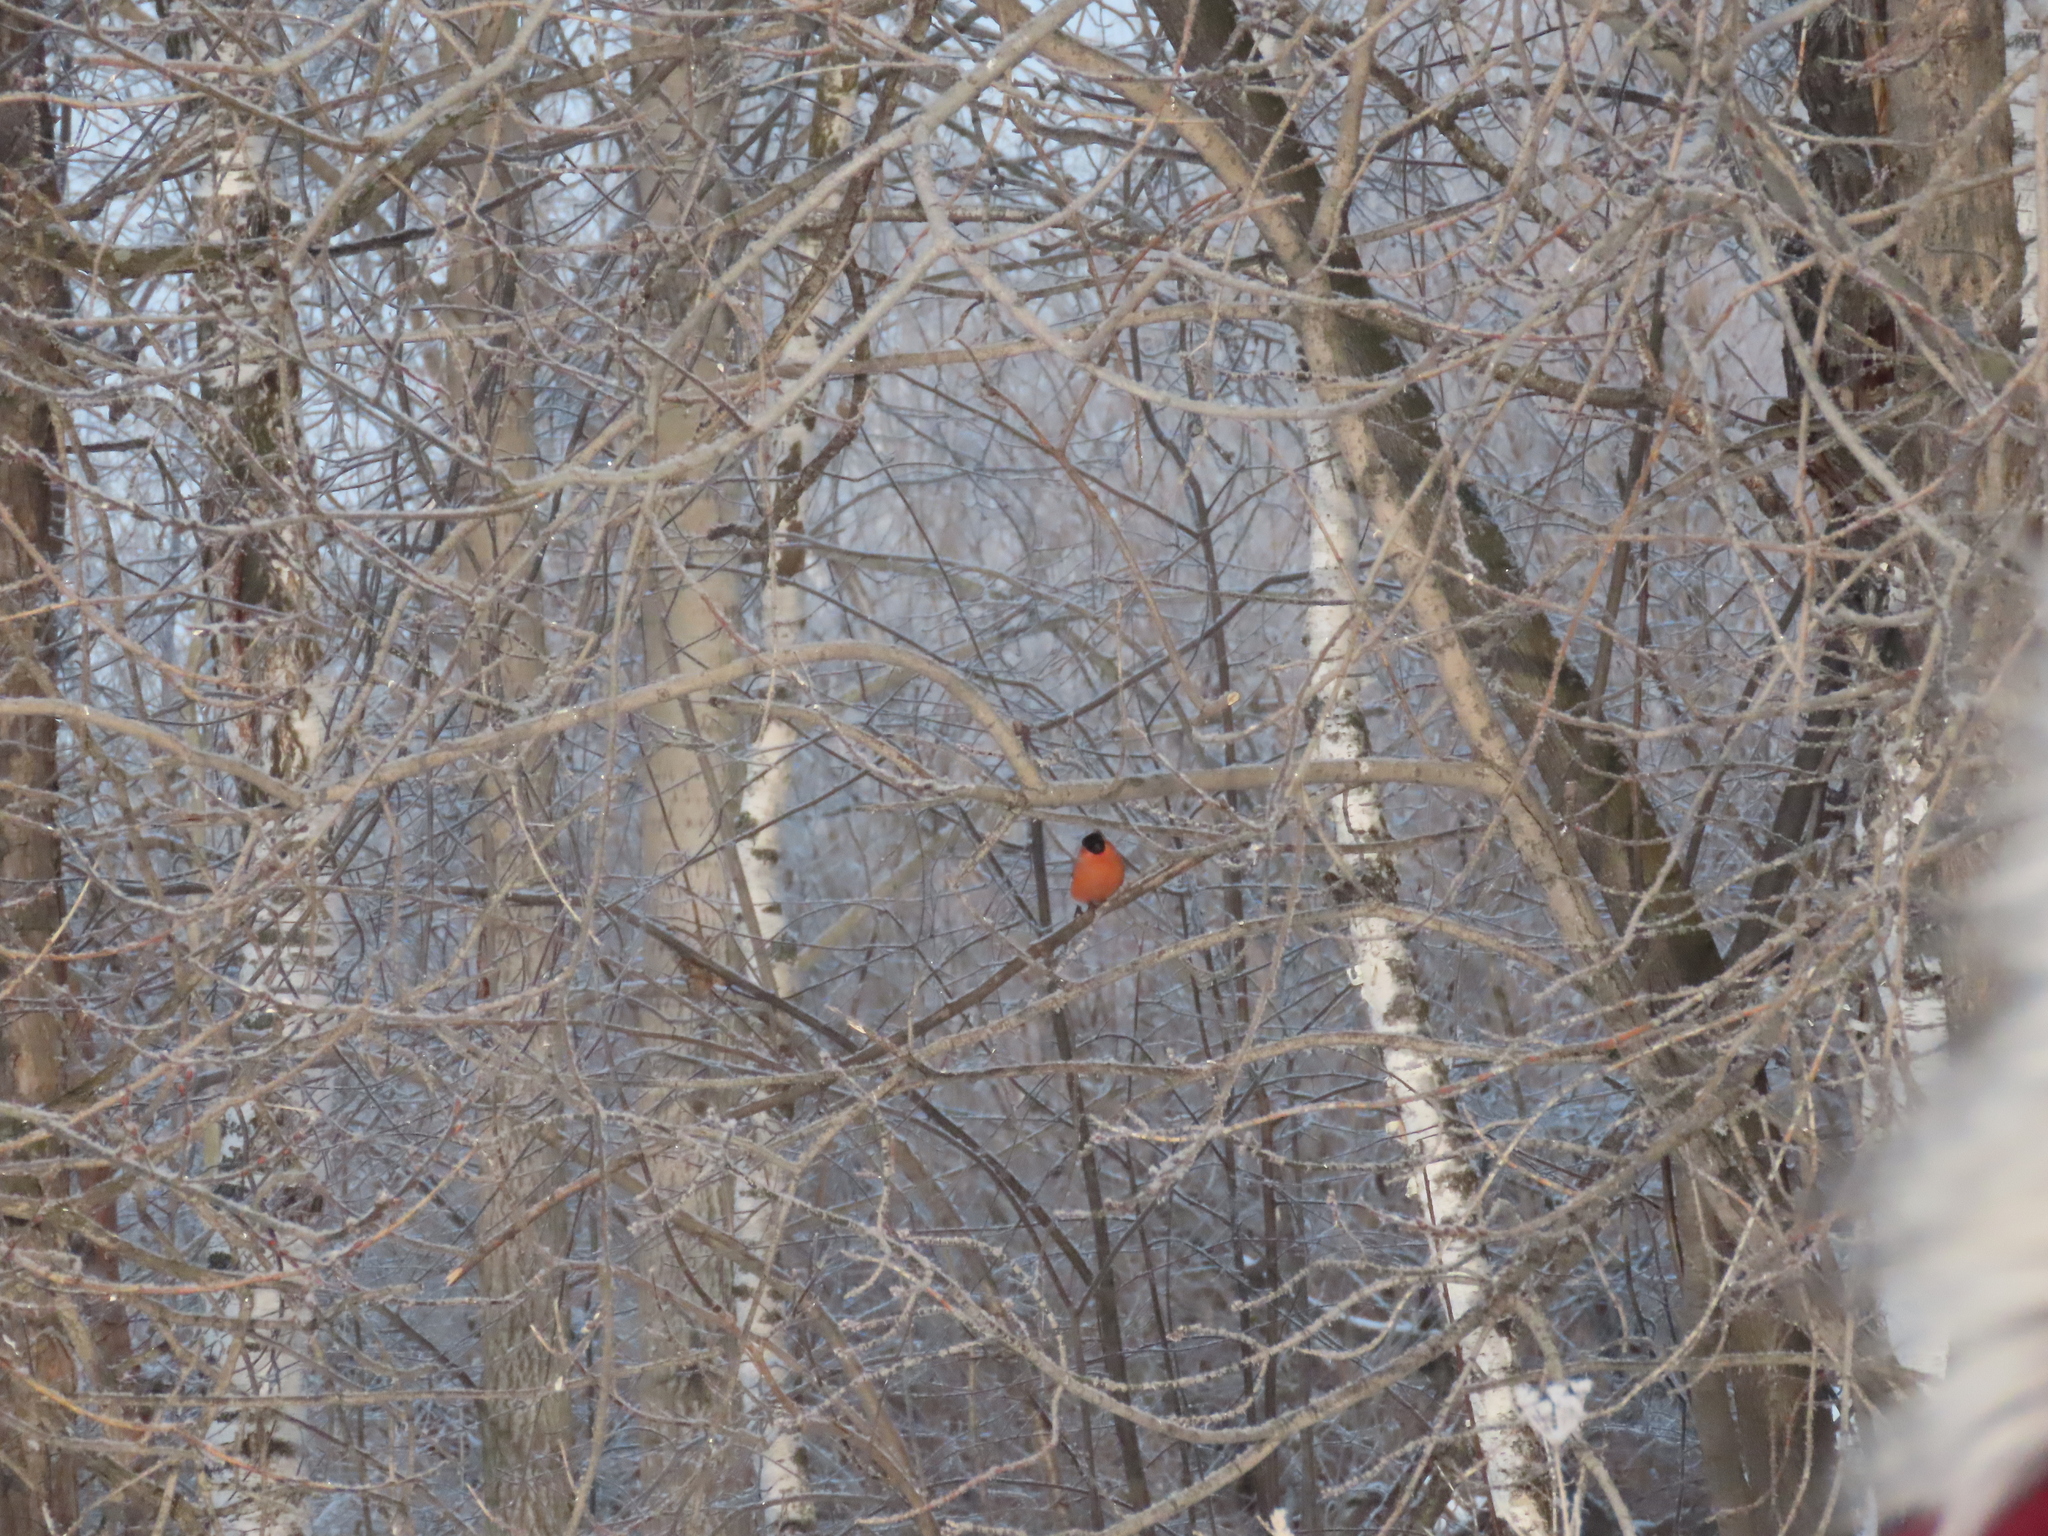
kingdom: Animalia
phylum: Chordata
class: Aves
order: Passeriformes
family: Fringillidae
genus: Pyrrhula
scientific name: Pyrrhula pyrrhula
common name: Eurasian bullfinch
